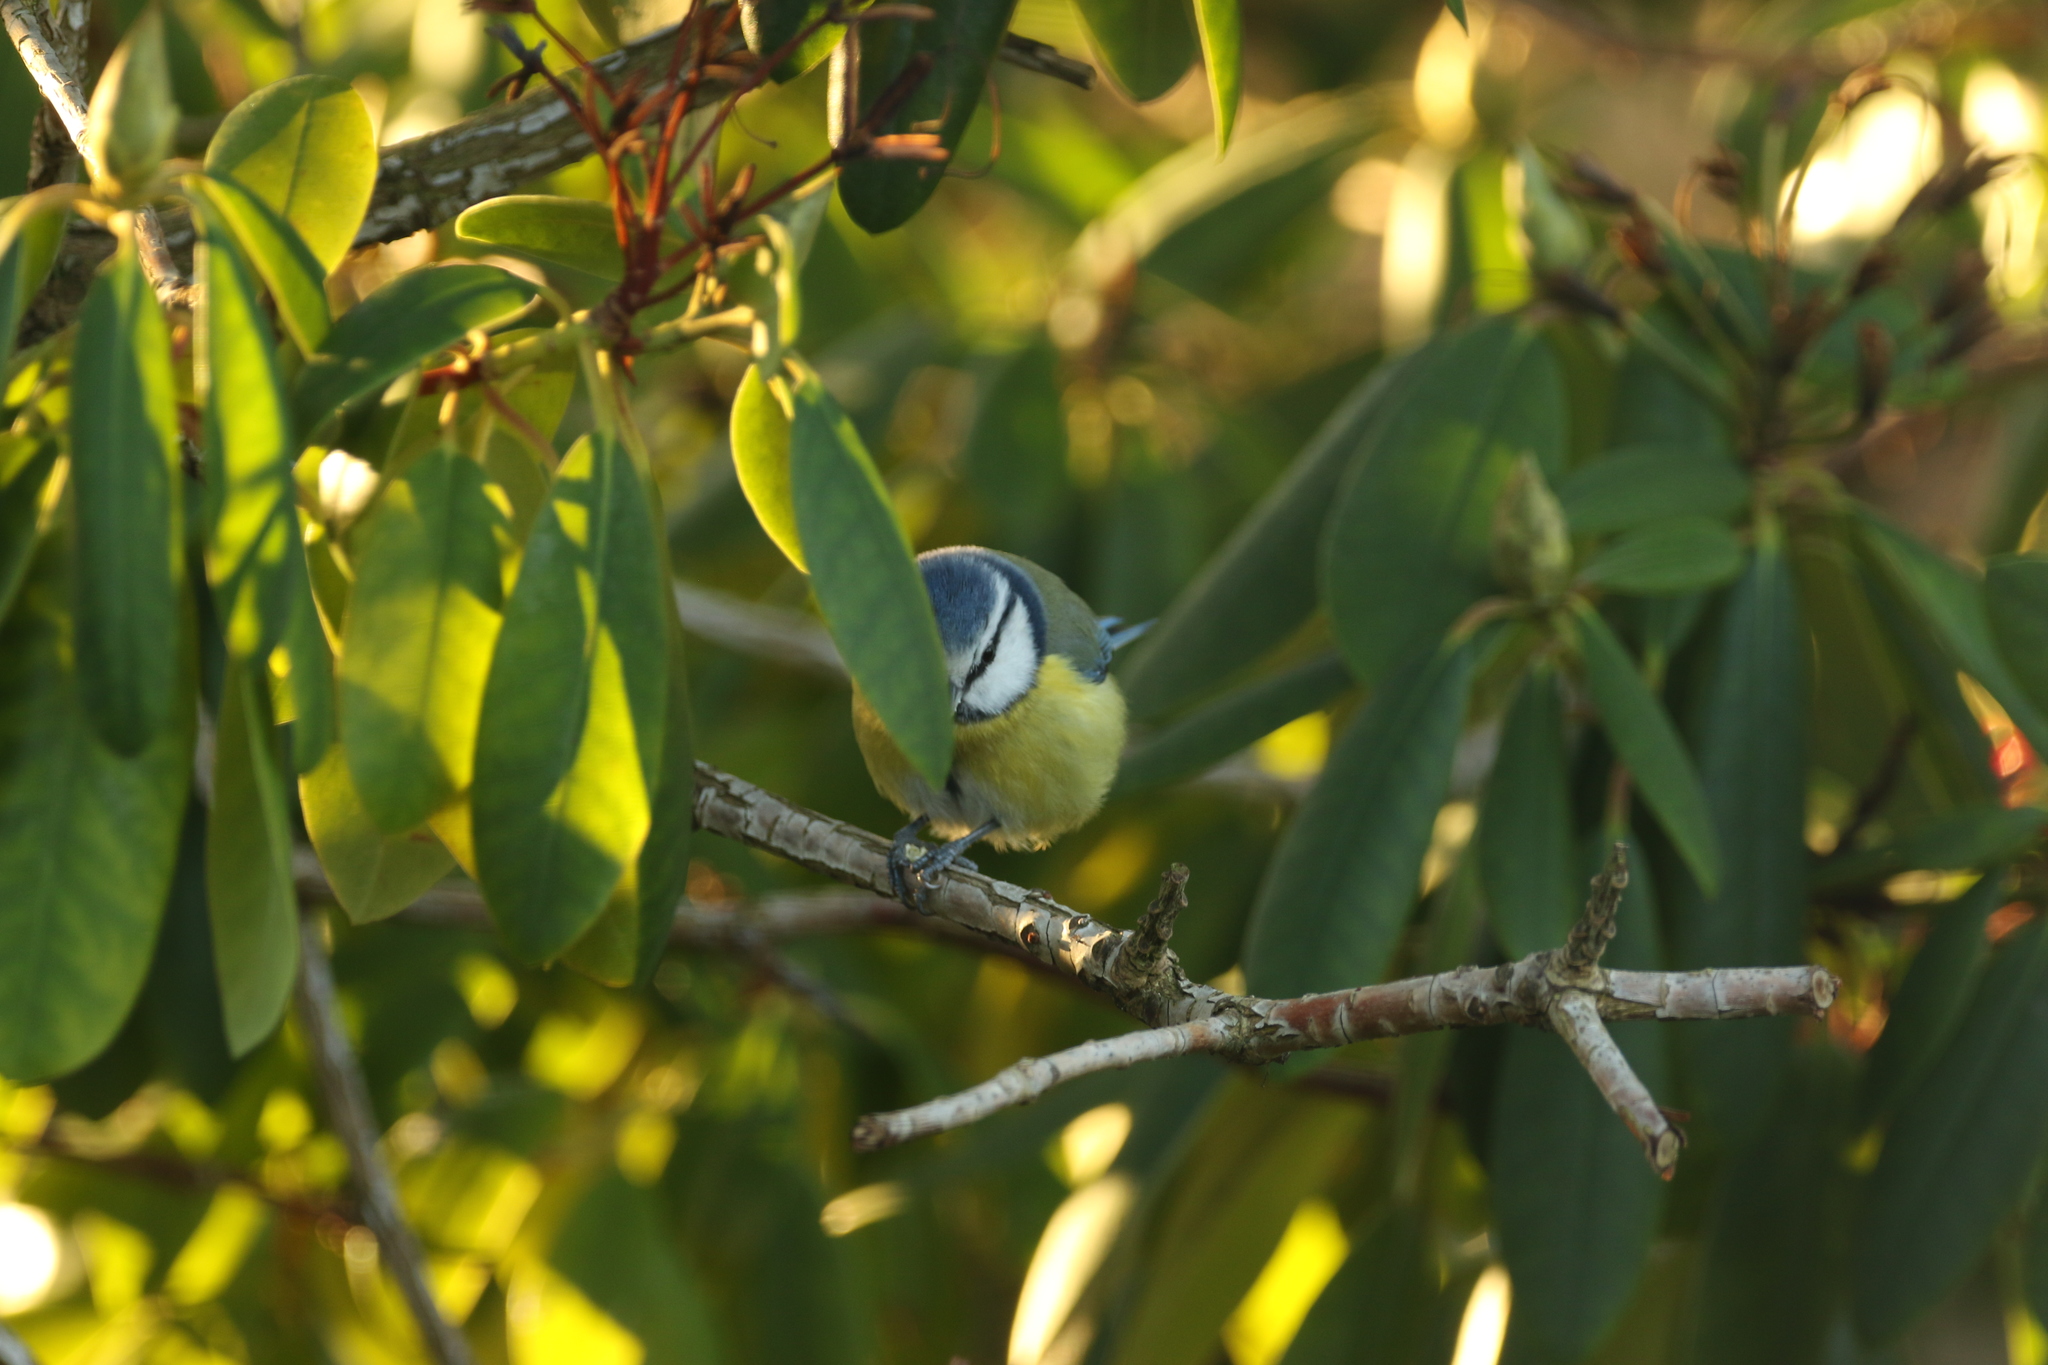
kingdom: Animalia
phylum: Chordata
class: Aves
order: Passeriformes
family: Paridae
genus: Cyanistes
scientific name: Cyanistes caeruleus
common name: Eurasian blue tit
